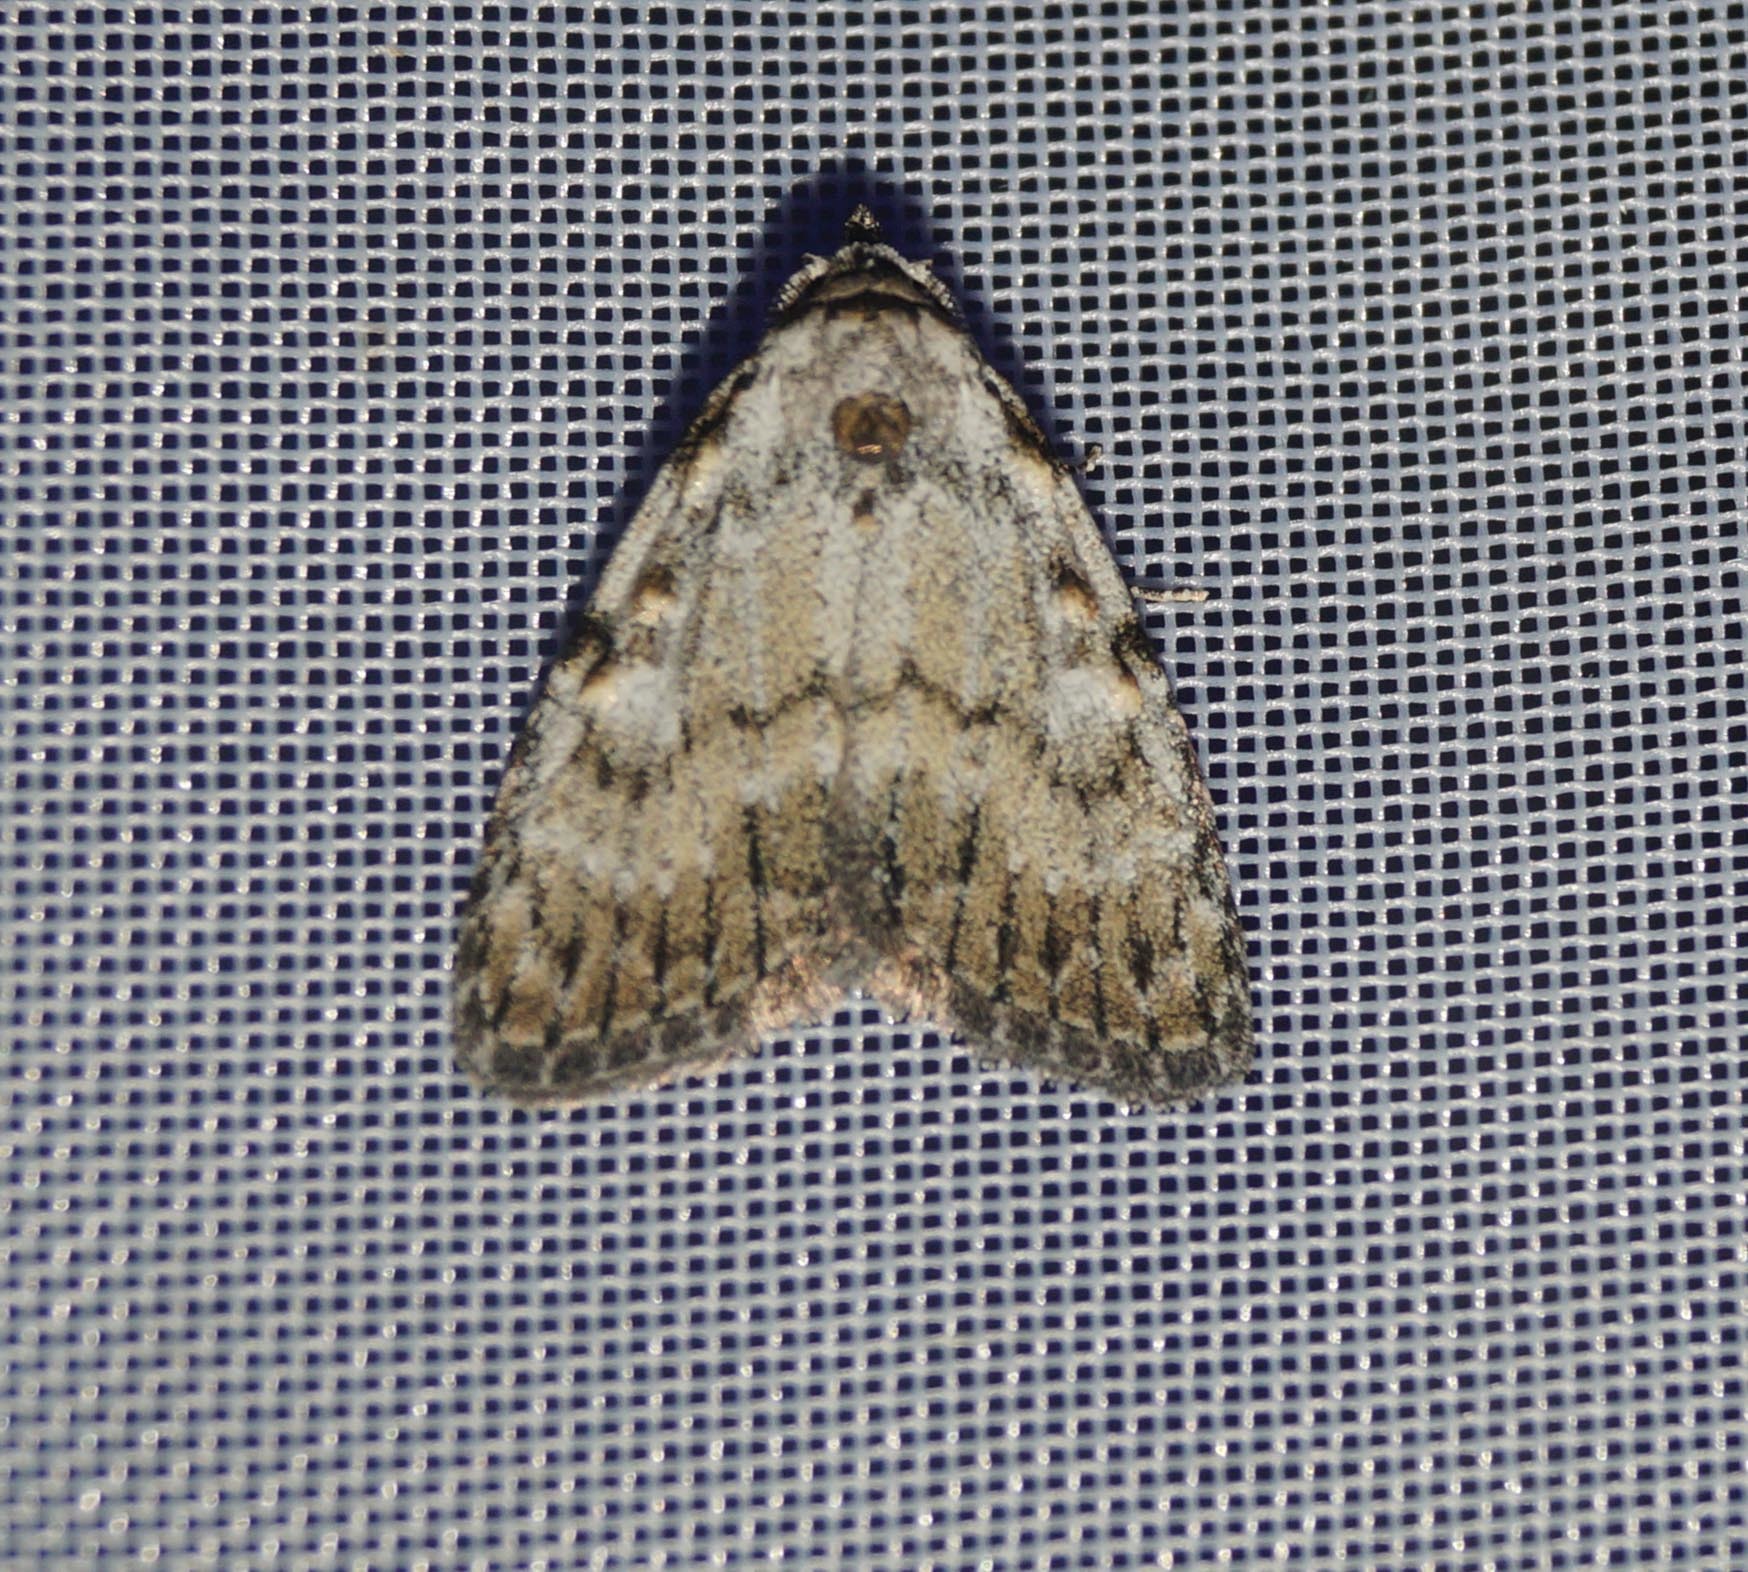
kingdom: Animalia
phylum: Arthropoda
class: Insecta
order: Lepidoptera
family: Nolidae
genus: Meganola
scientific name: Meganola strigula
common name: Small black arches
